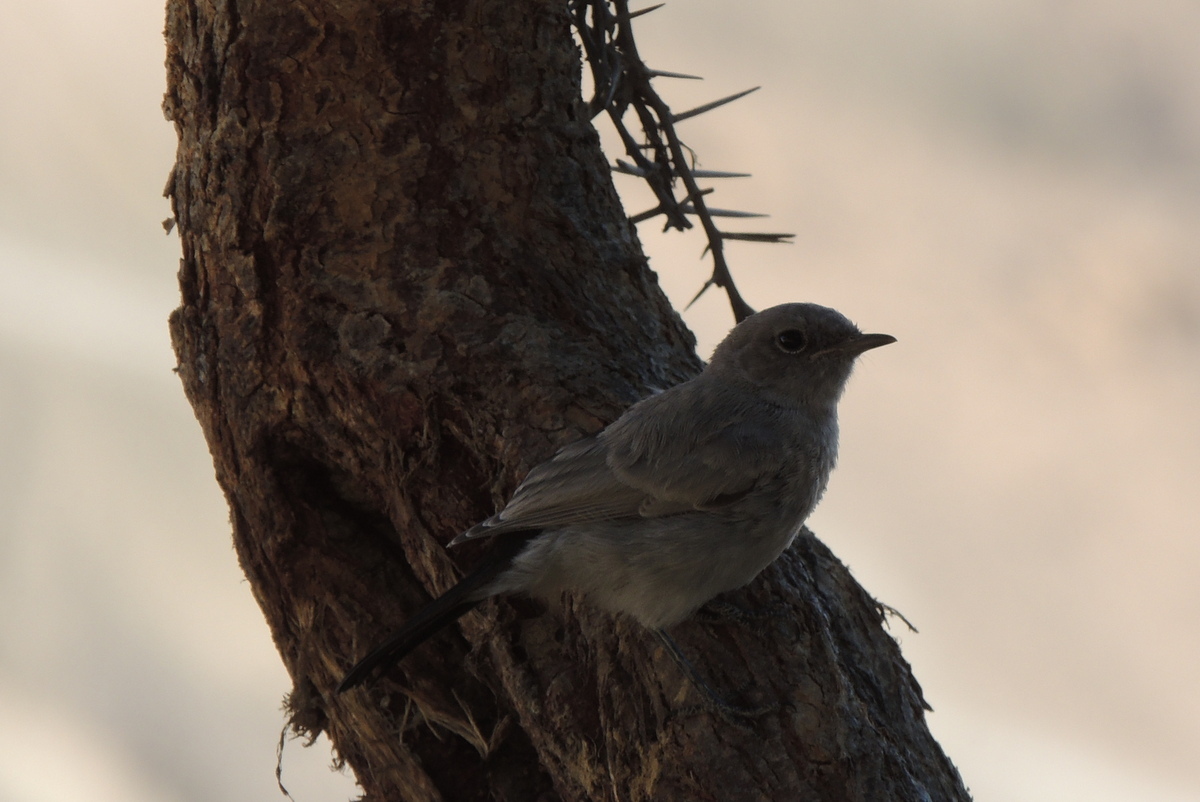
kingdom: Animalia
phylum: Chordata
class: Aves
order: Passeriformes
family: Muscicapidae
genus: Oenanthe
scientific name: Oenanthe melanura
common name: Blackstart
